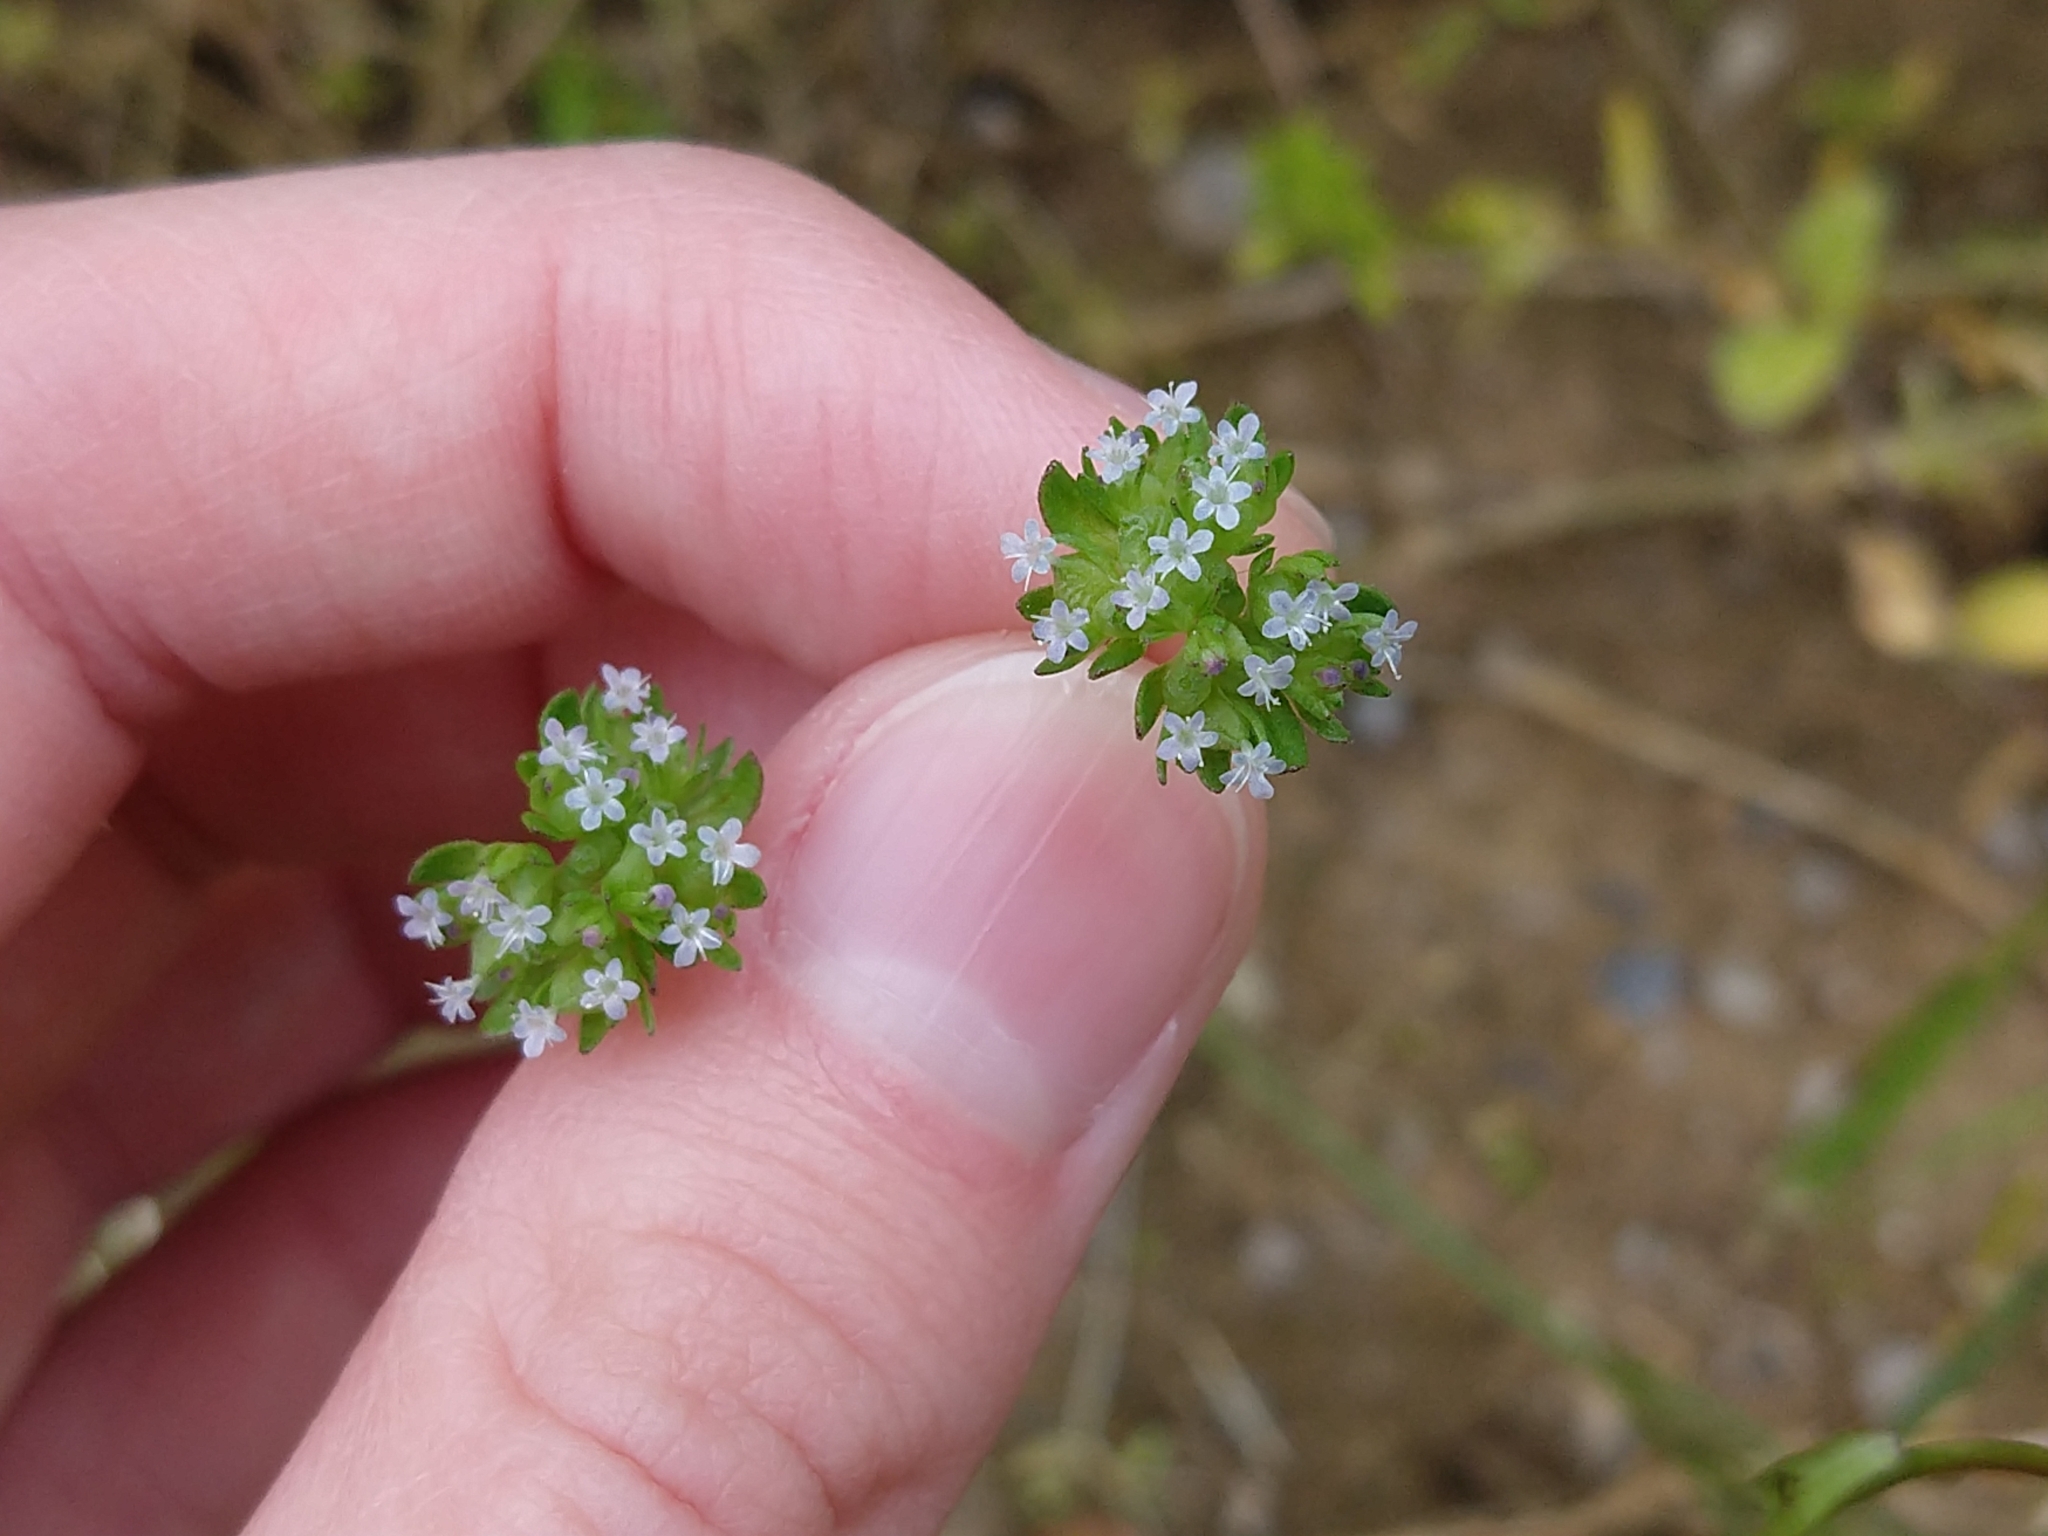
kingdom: Plantae
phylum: Tracheophyta
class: Magnoliopsida
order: Dipsacales
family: Caprifoliaceae
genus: Valerianella
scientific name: Valerianella locusta
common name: Common cornsalad
